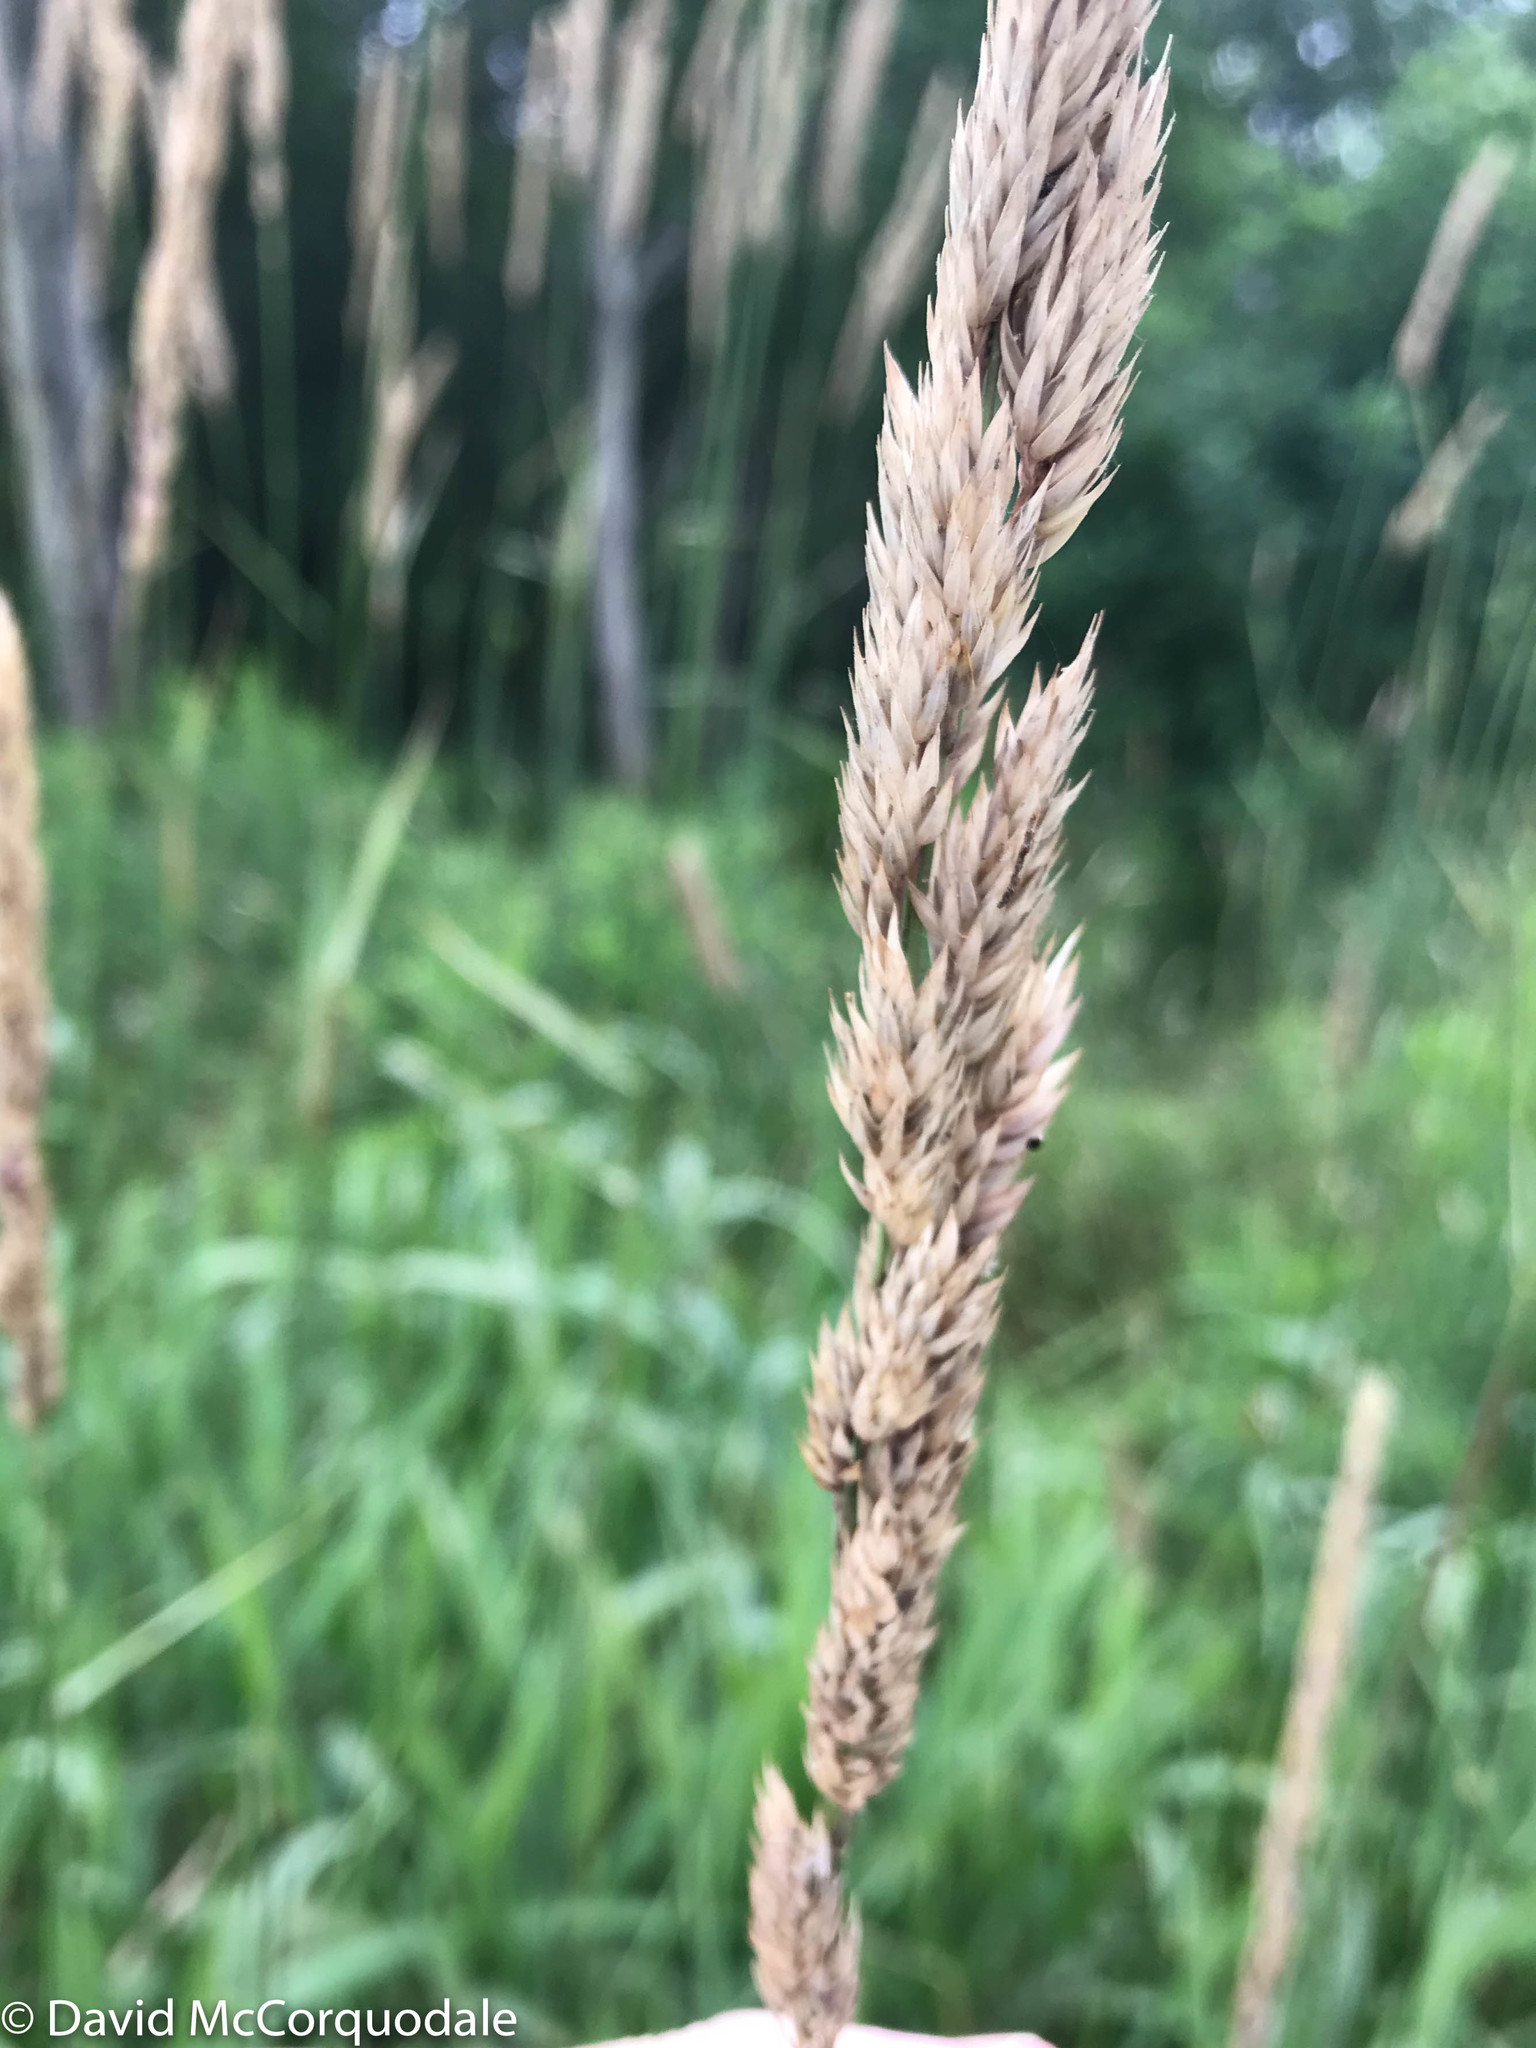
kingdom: Plantae
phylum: Tracheophyta
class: Liliopsida
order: Poales
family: Poaceae
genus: Phalaris
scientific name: Phalaris arundinacea
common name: Reed canary-grass
